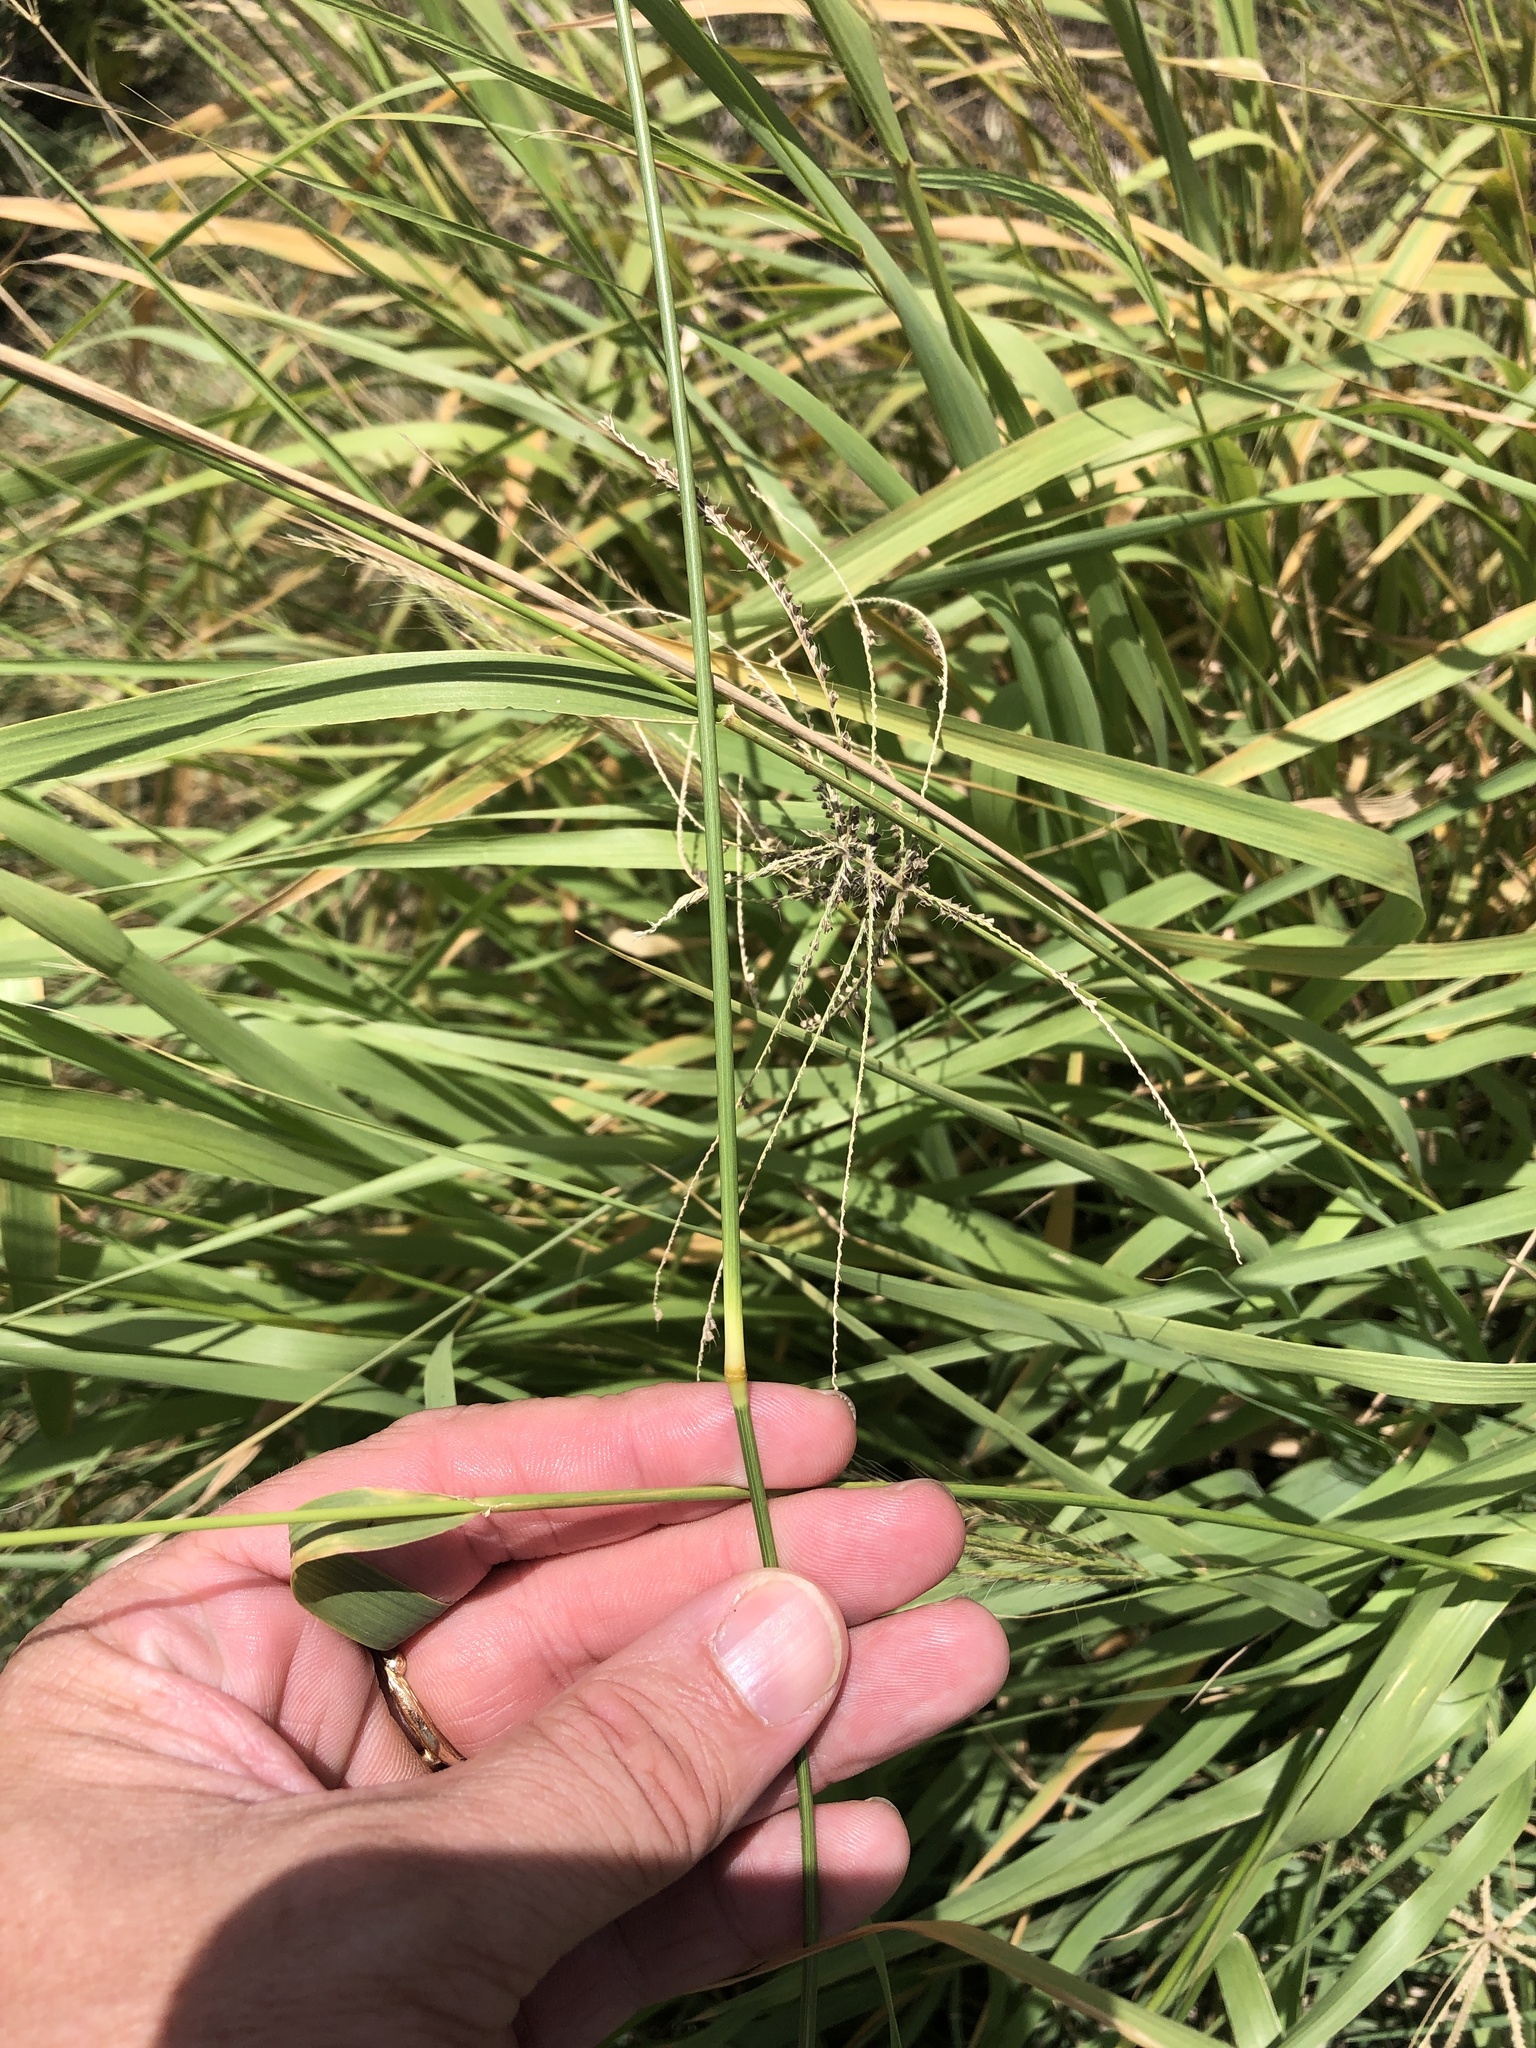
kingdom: Plantae
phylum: Tracheophyta
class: Liliopsida
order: Poales
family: Poaceae
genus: Leptochloa
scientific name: Leptochloa pluriflora
